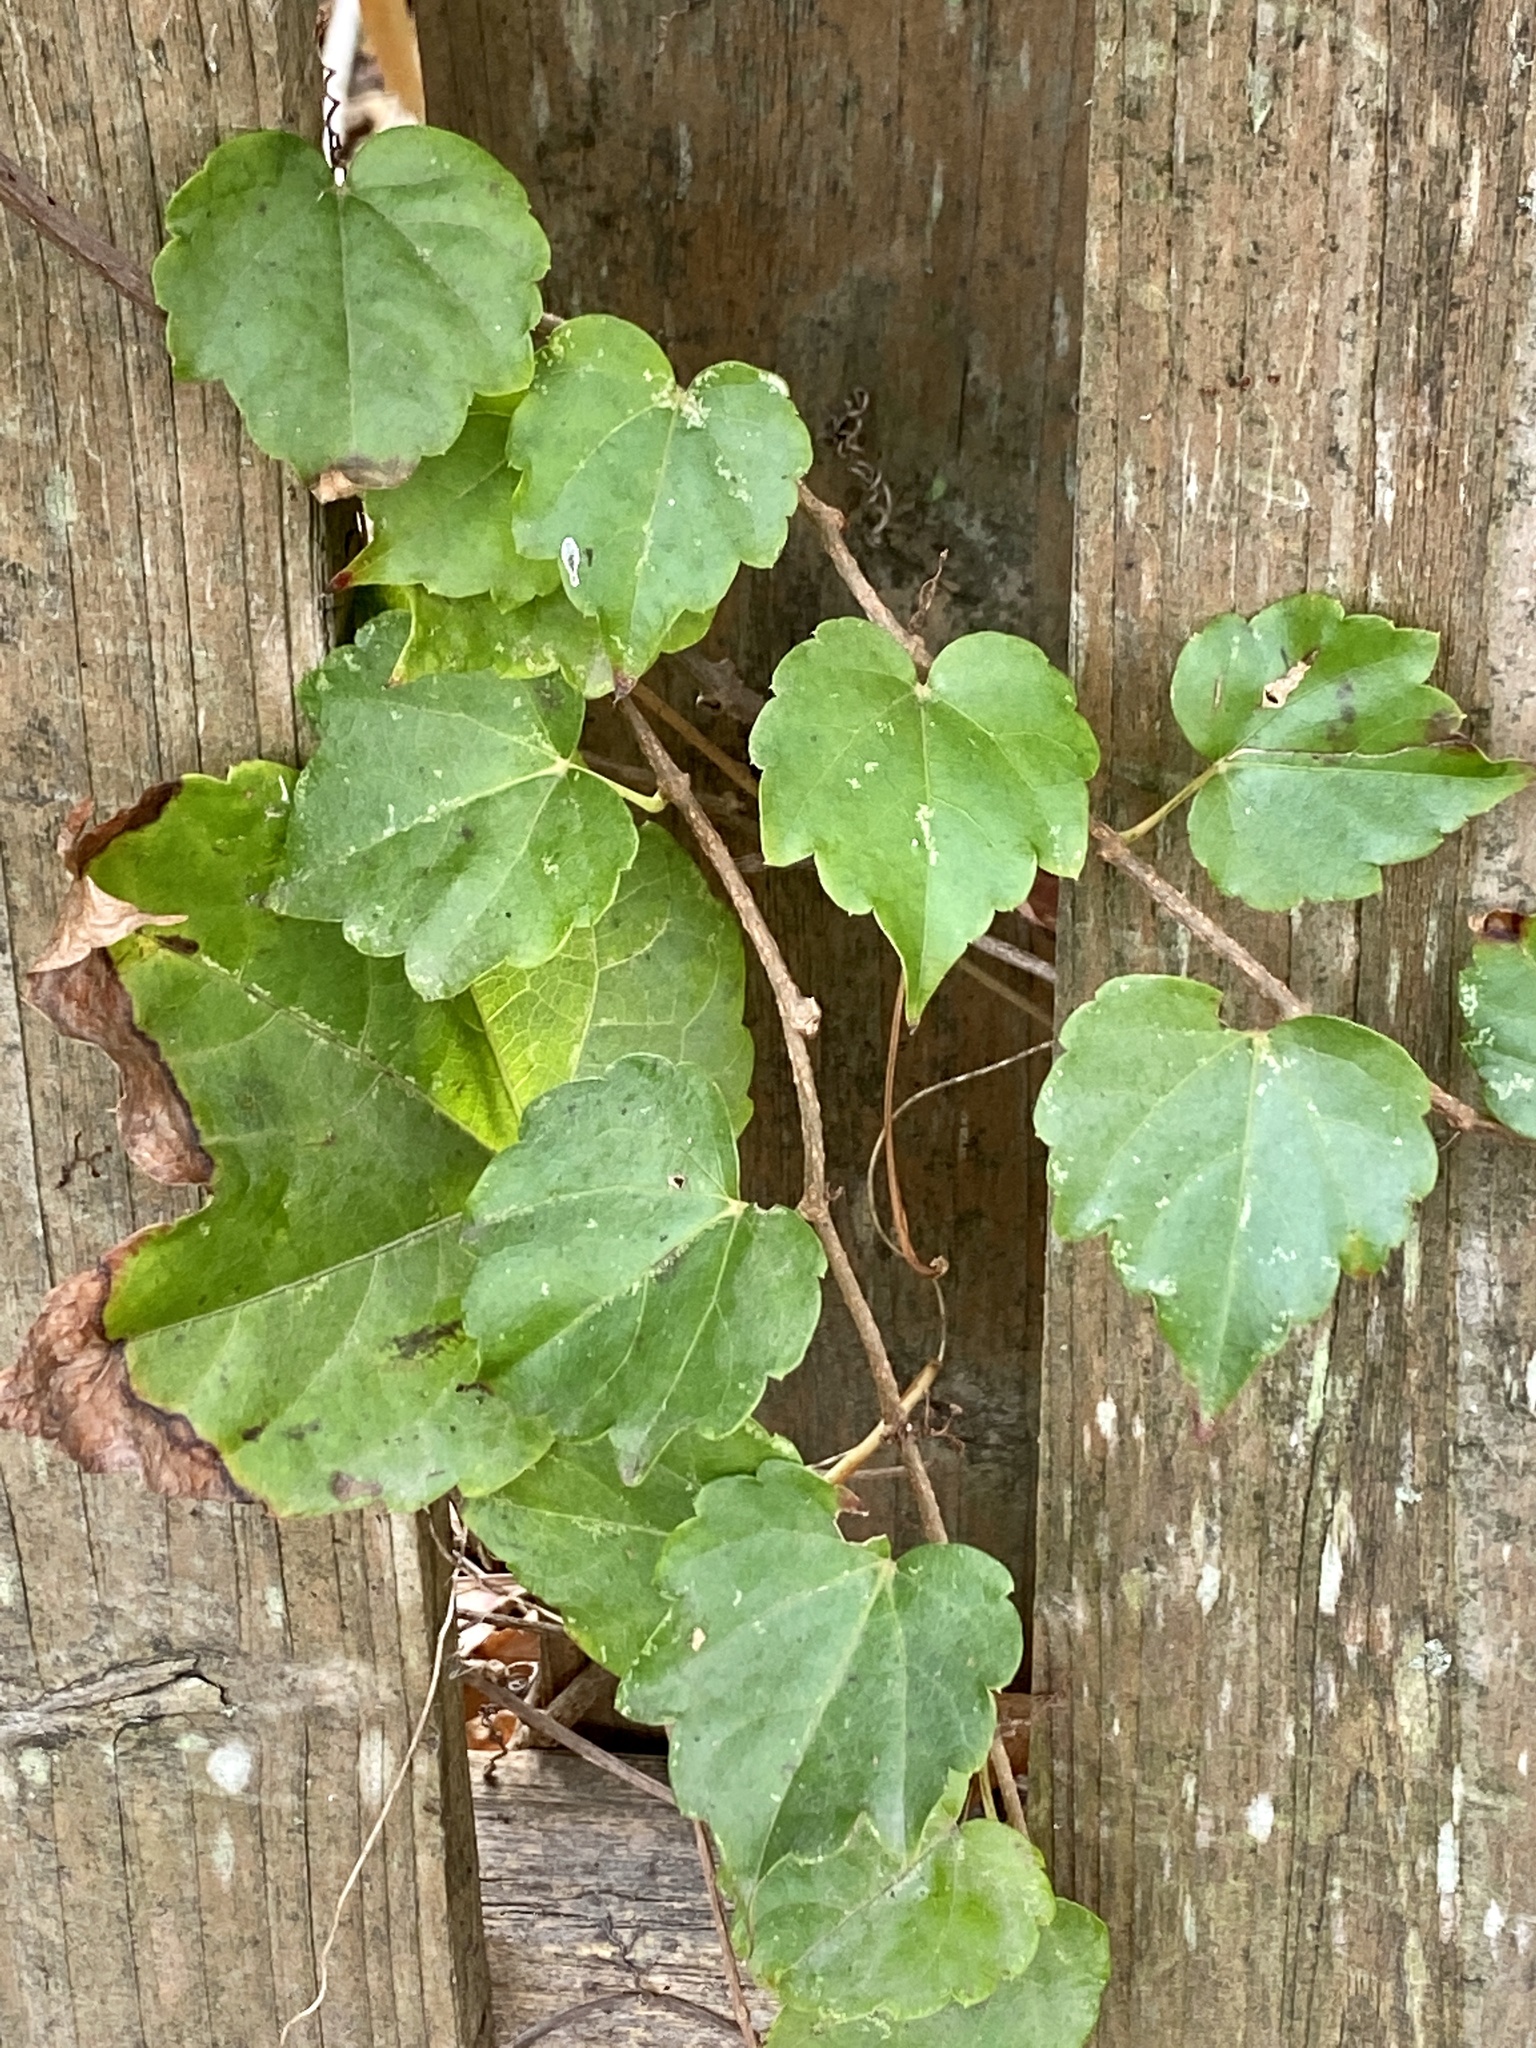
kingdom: Plantae
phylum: Tracheophyta
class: Magnoliopsida
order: Vitales
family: Vitaceae
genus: Parthenocissus
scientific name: Parthenocissus tricuspidata
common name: Boston ivy
